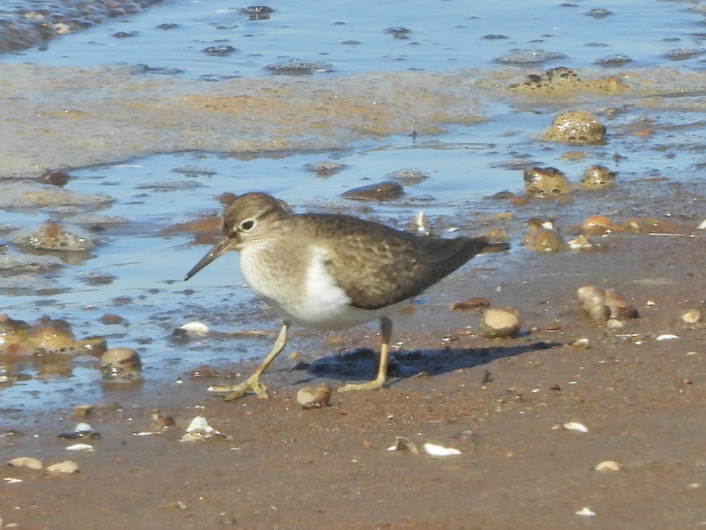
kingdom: Animalia
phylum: Chordata
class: Aves
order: Charadriiformes
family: Scolopacidae
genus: Actitis
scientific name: Actitis hypoleucos
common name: Common sandpiper
